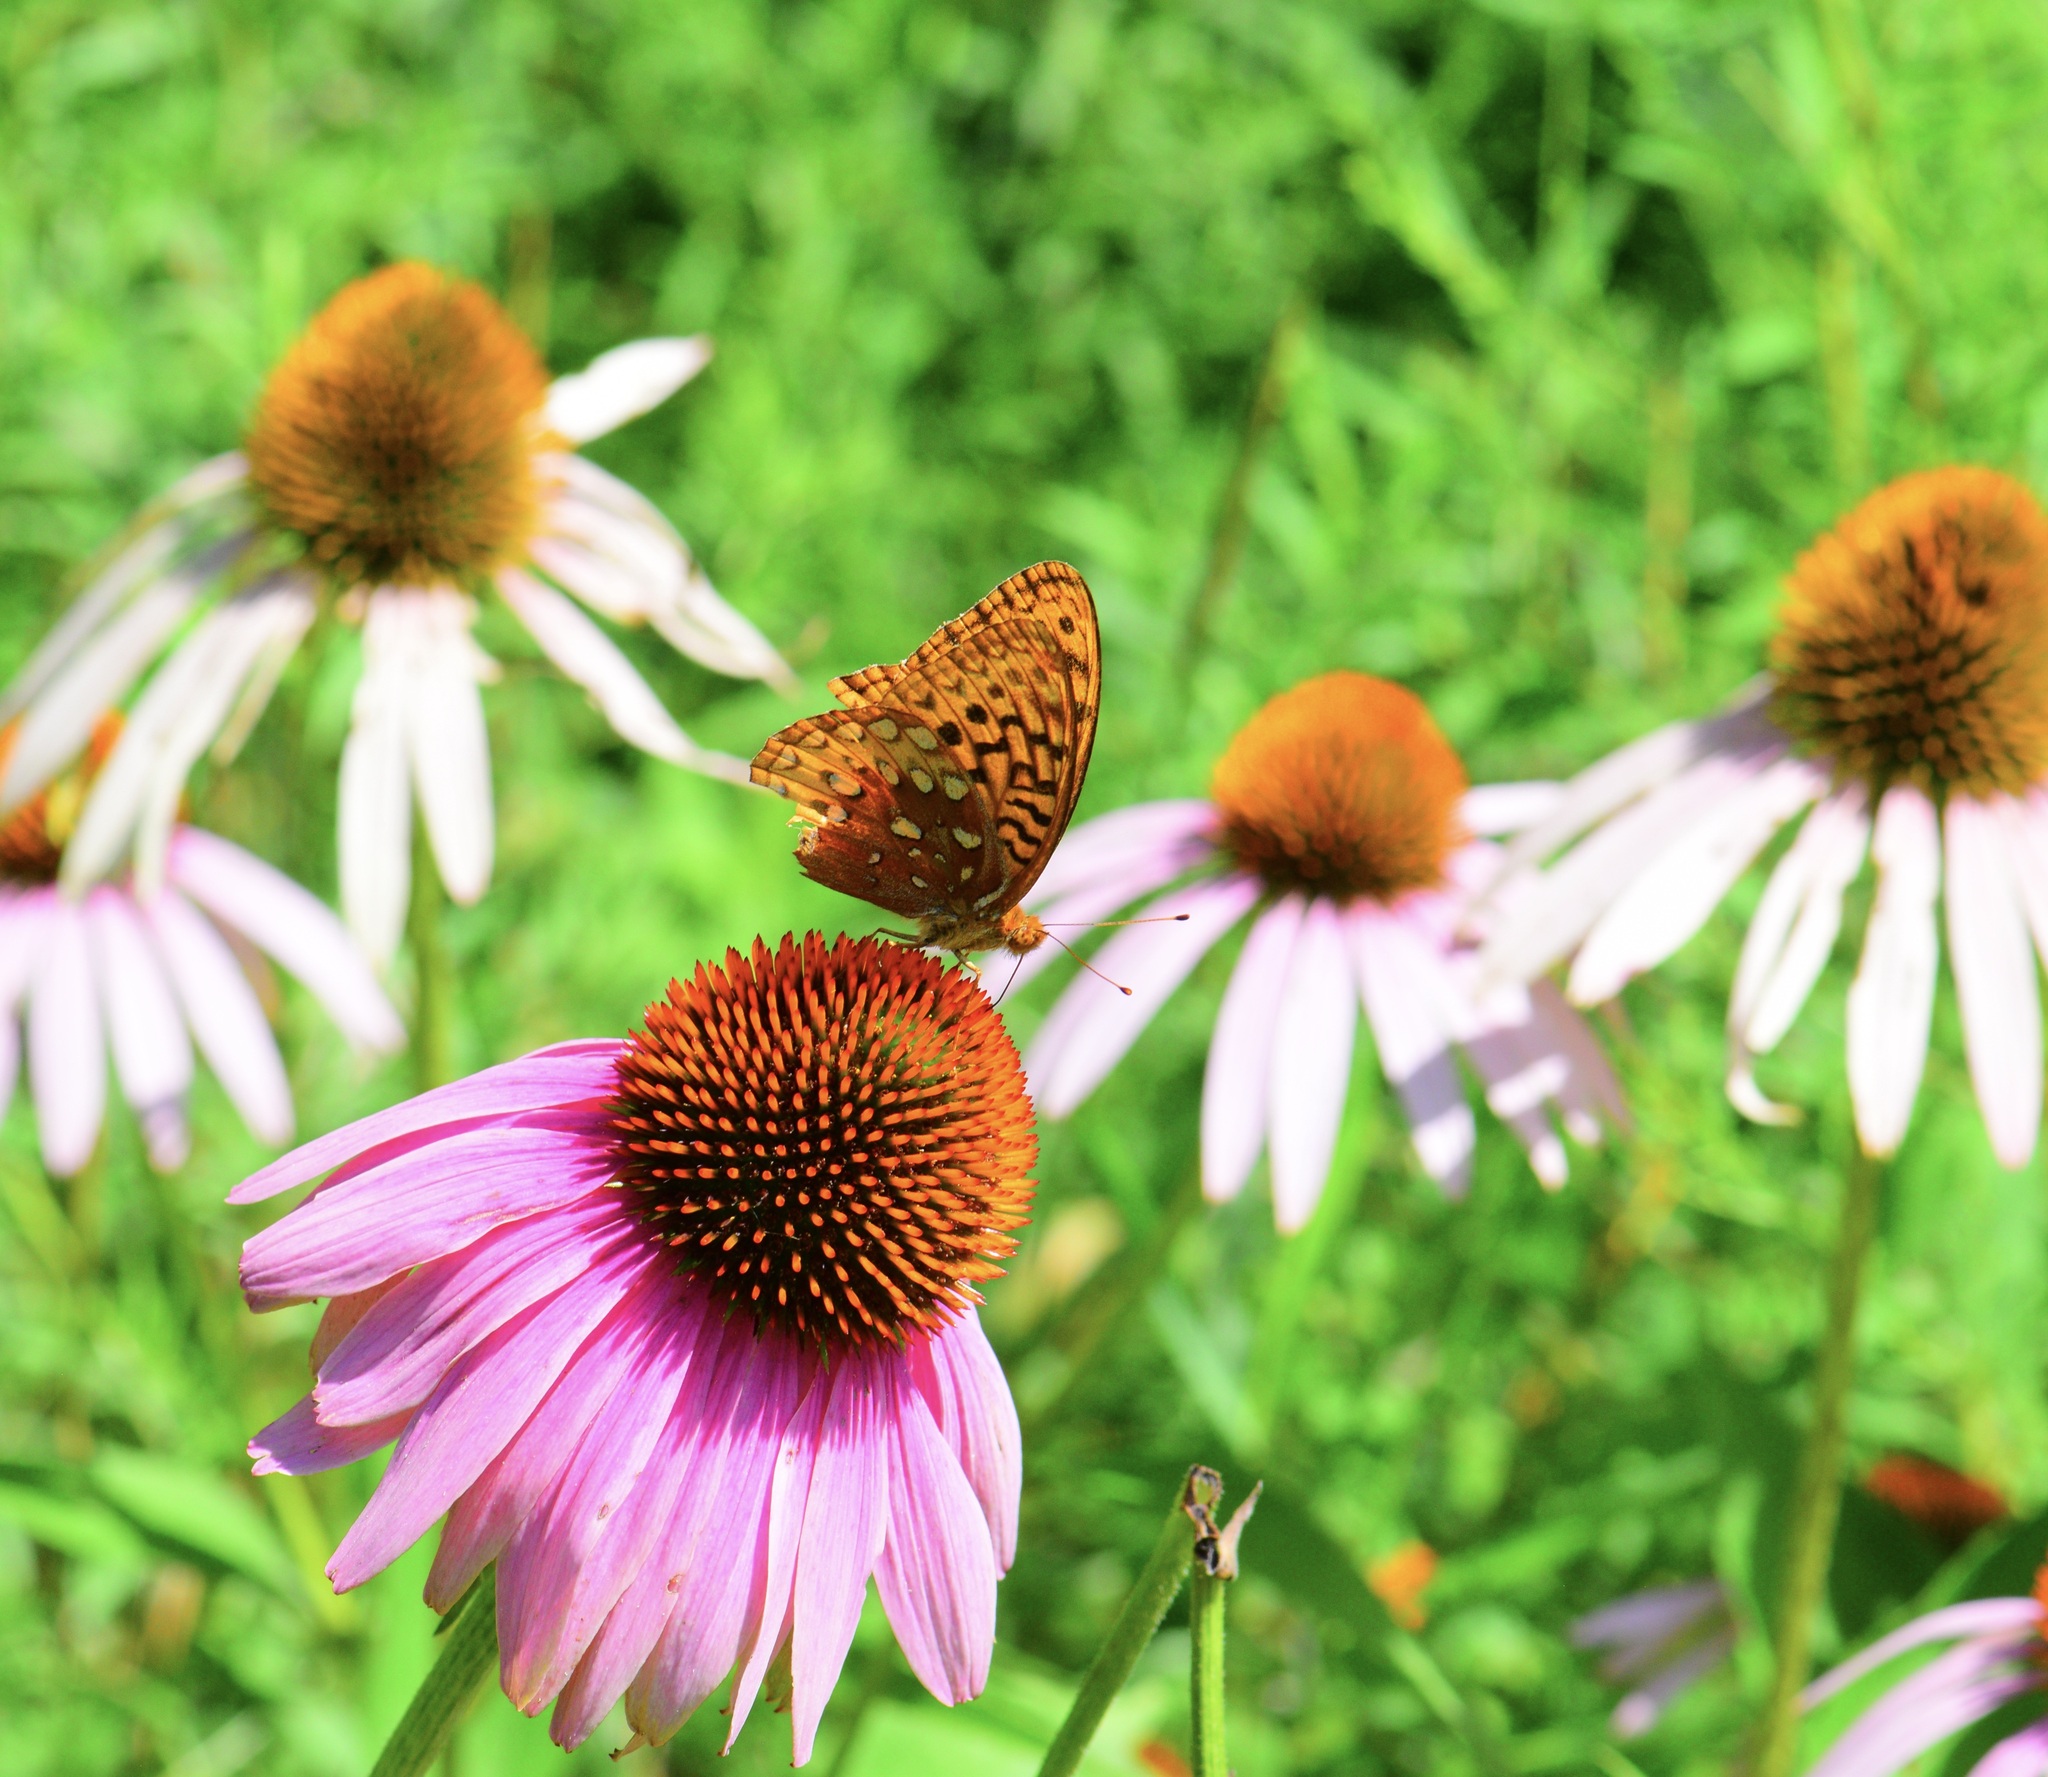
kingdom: Animalia
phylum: Arthropoda
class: Insecta
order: Lepidoptera
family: Nymphalidae
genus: Speyeria
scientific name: Speyeria cybele
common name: Great spangled fritillary
